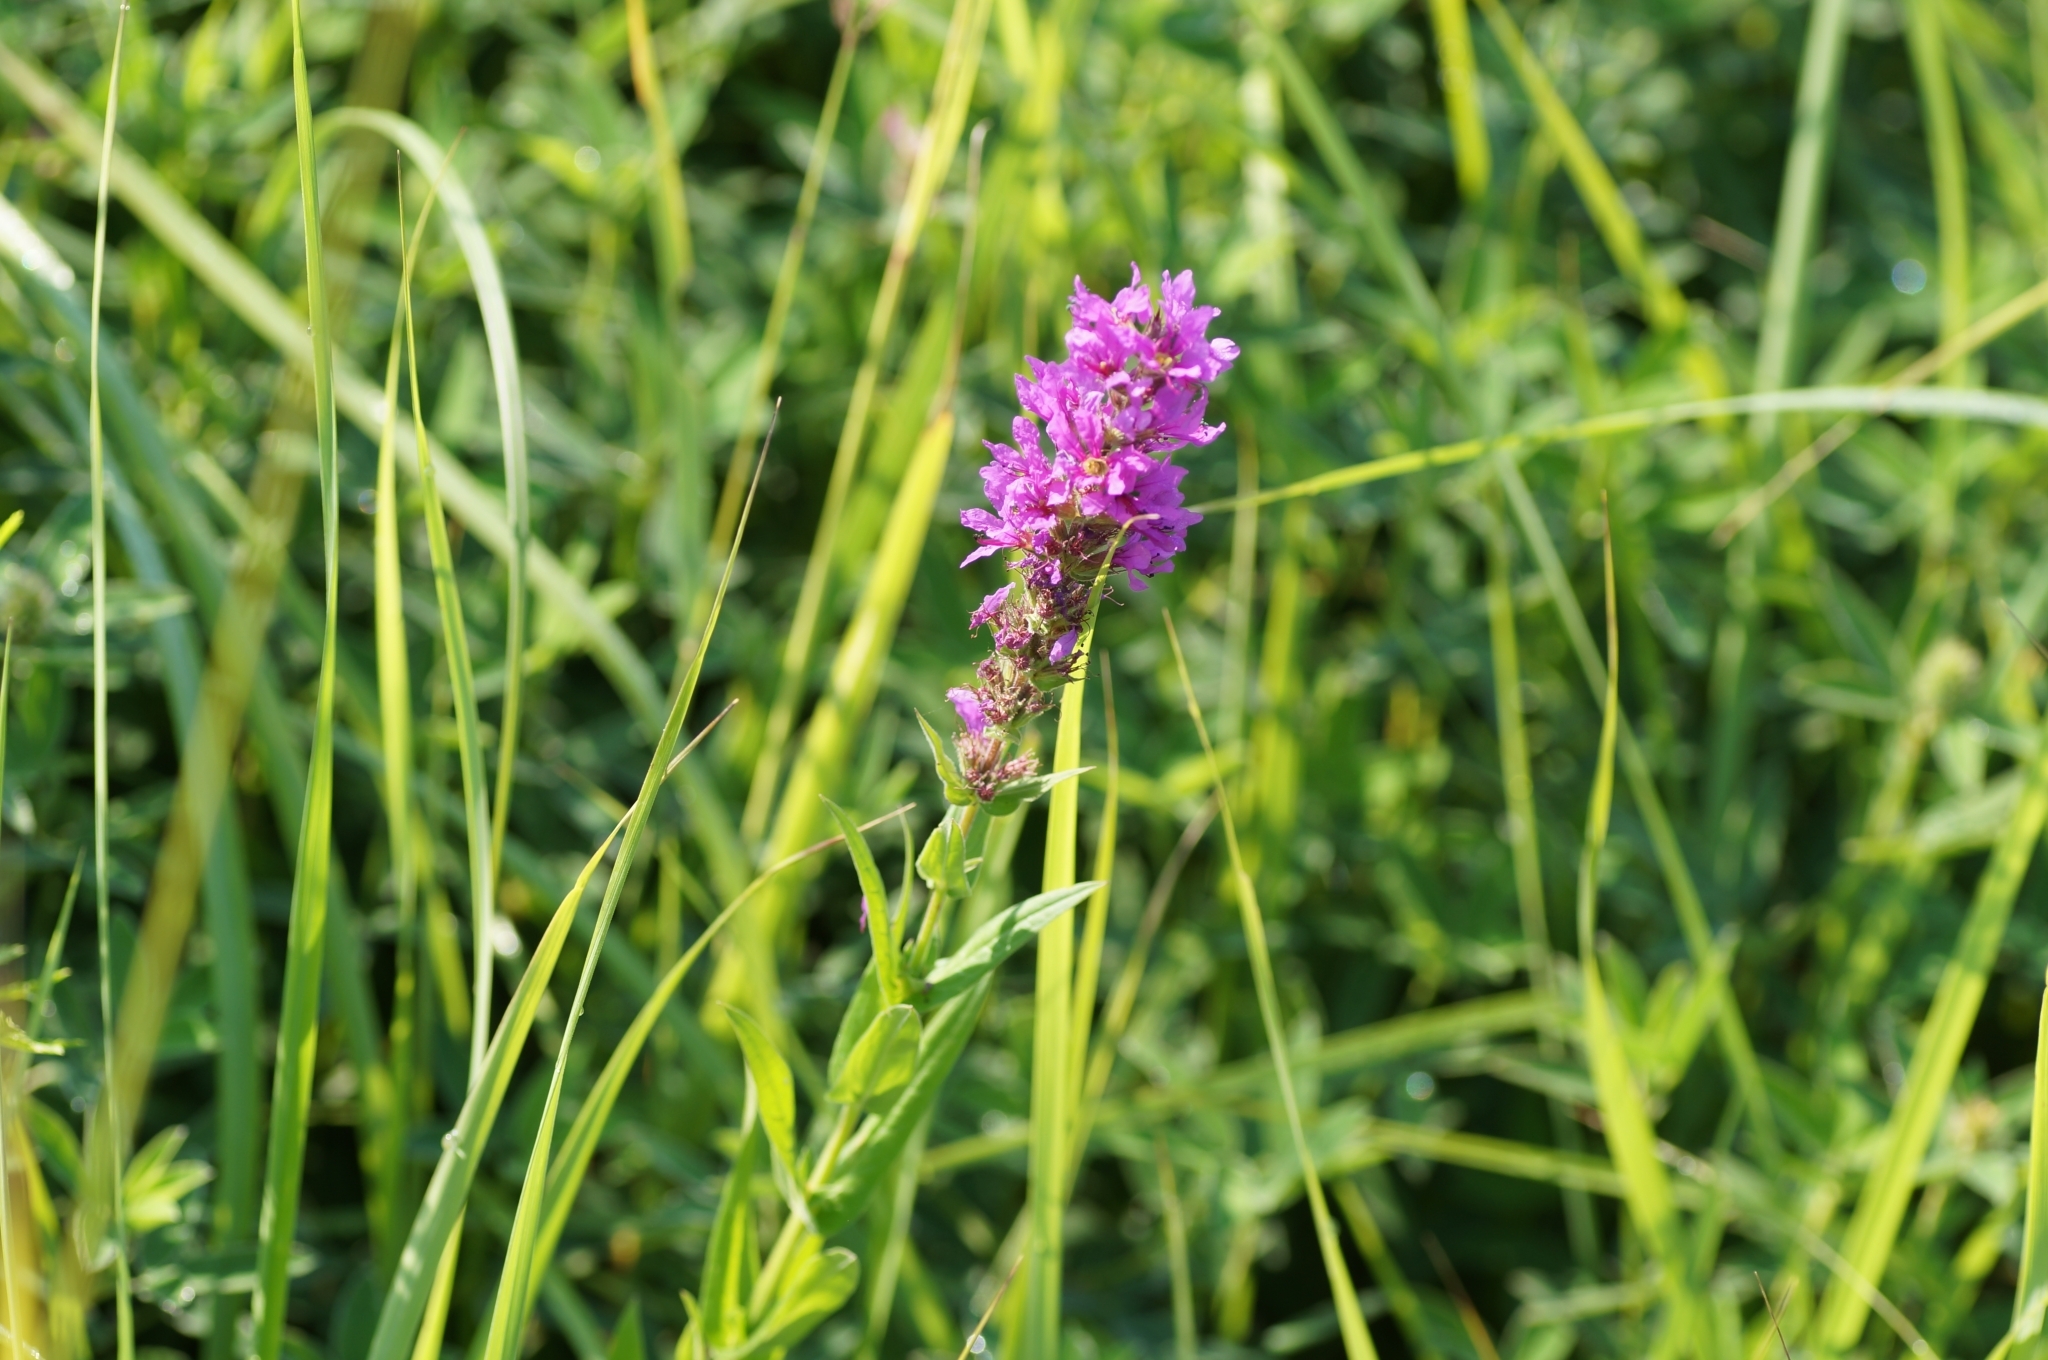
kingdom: Plantae
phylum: Tracheophyta
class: Magnoliopsida
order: Myrtales
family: Lythraceae
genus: Lythrum
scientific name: Lythrum salicaria
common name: Purple loosestrife
